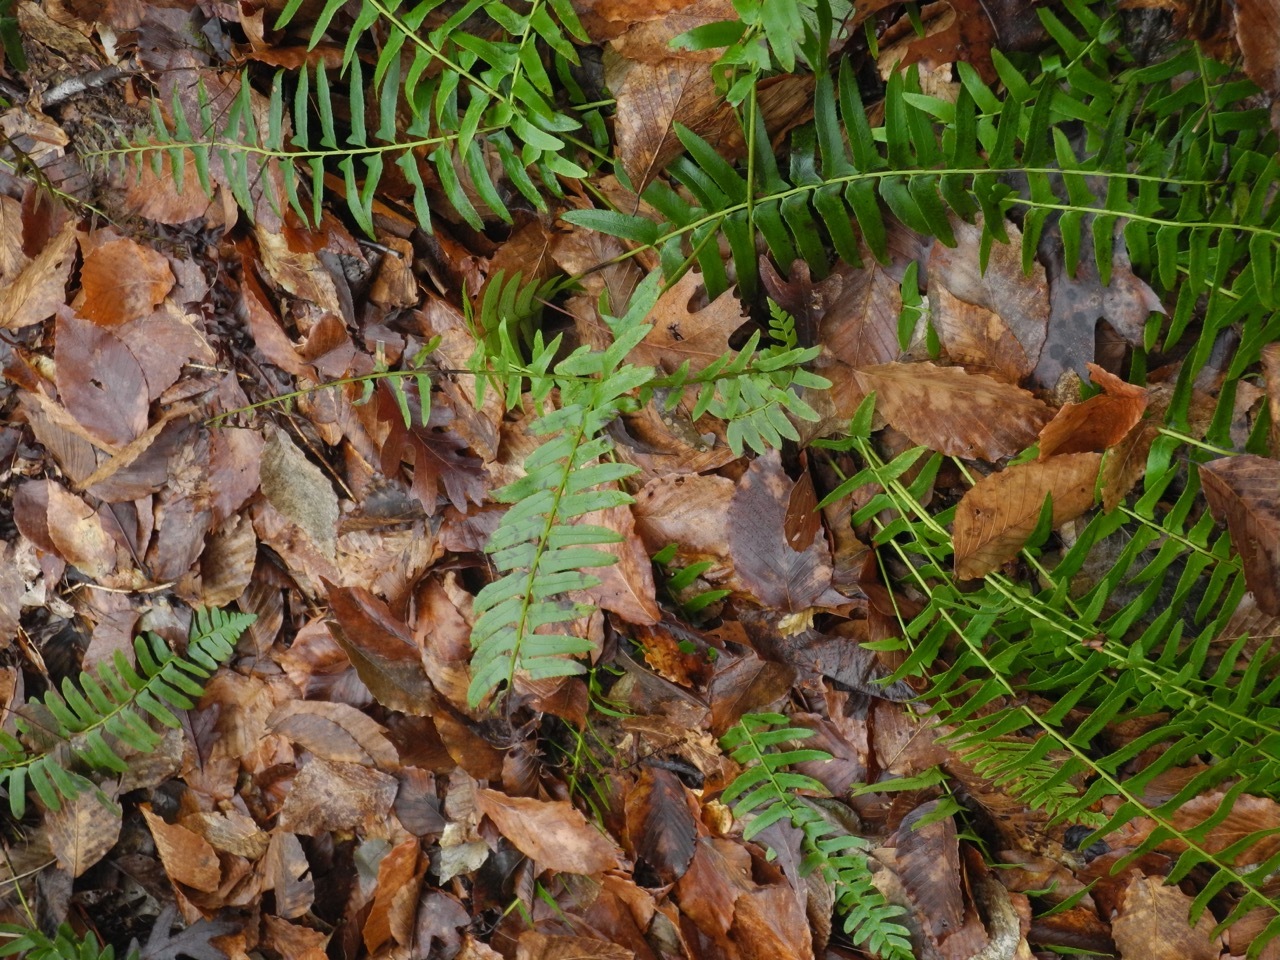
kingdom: Plantae
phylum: Tracheophyta
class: Polypodiopsida
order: Polypodiales
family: Dryopteridaceae
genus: Polystichum
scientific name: Polystichum acrostichoides
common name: Christmas fern
